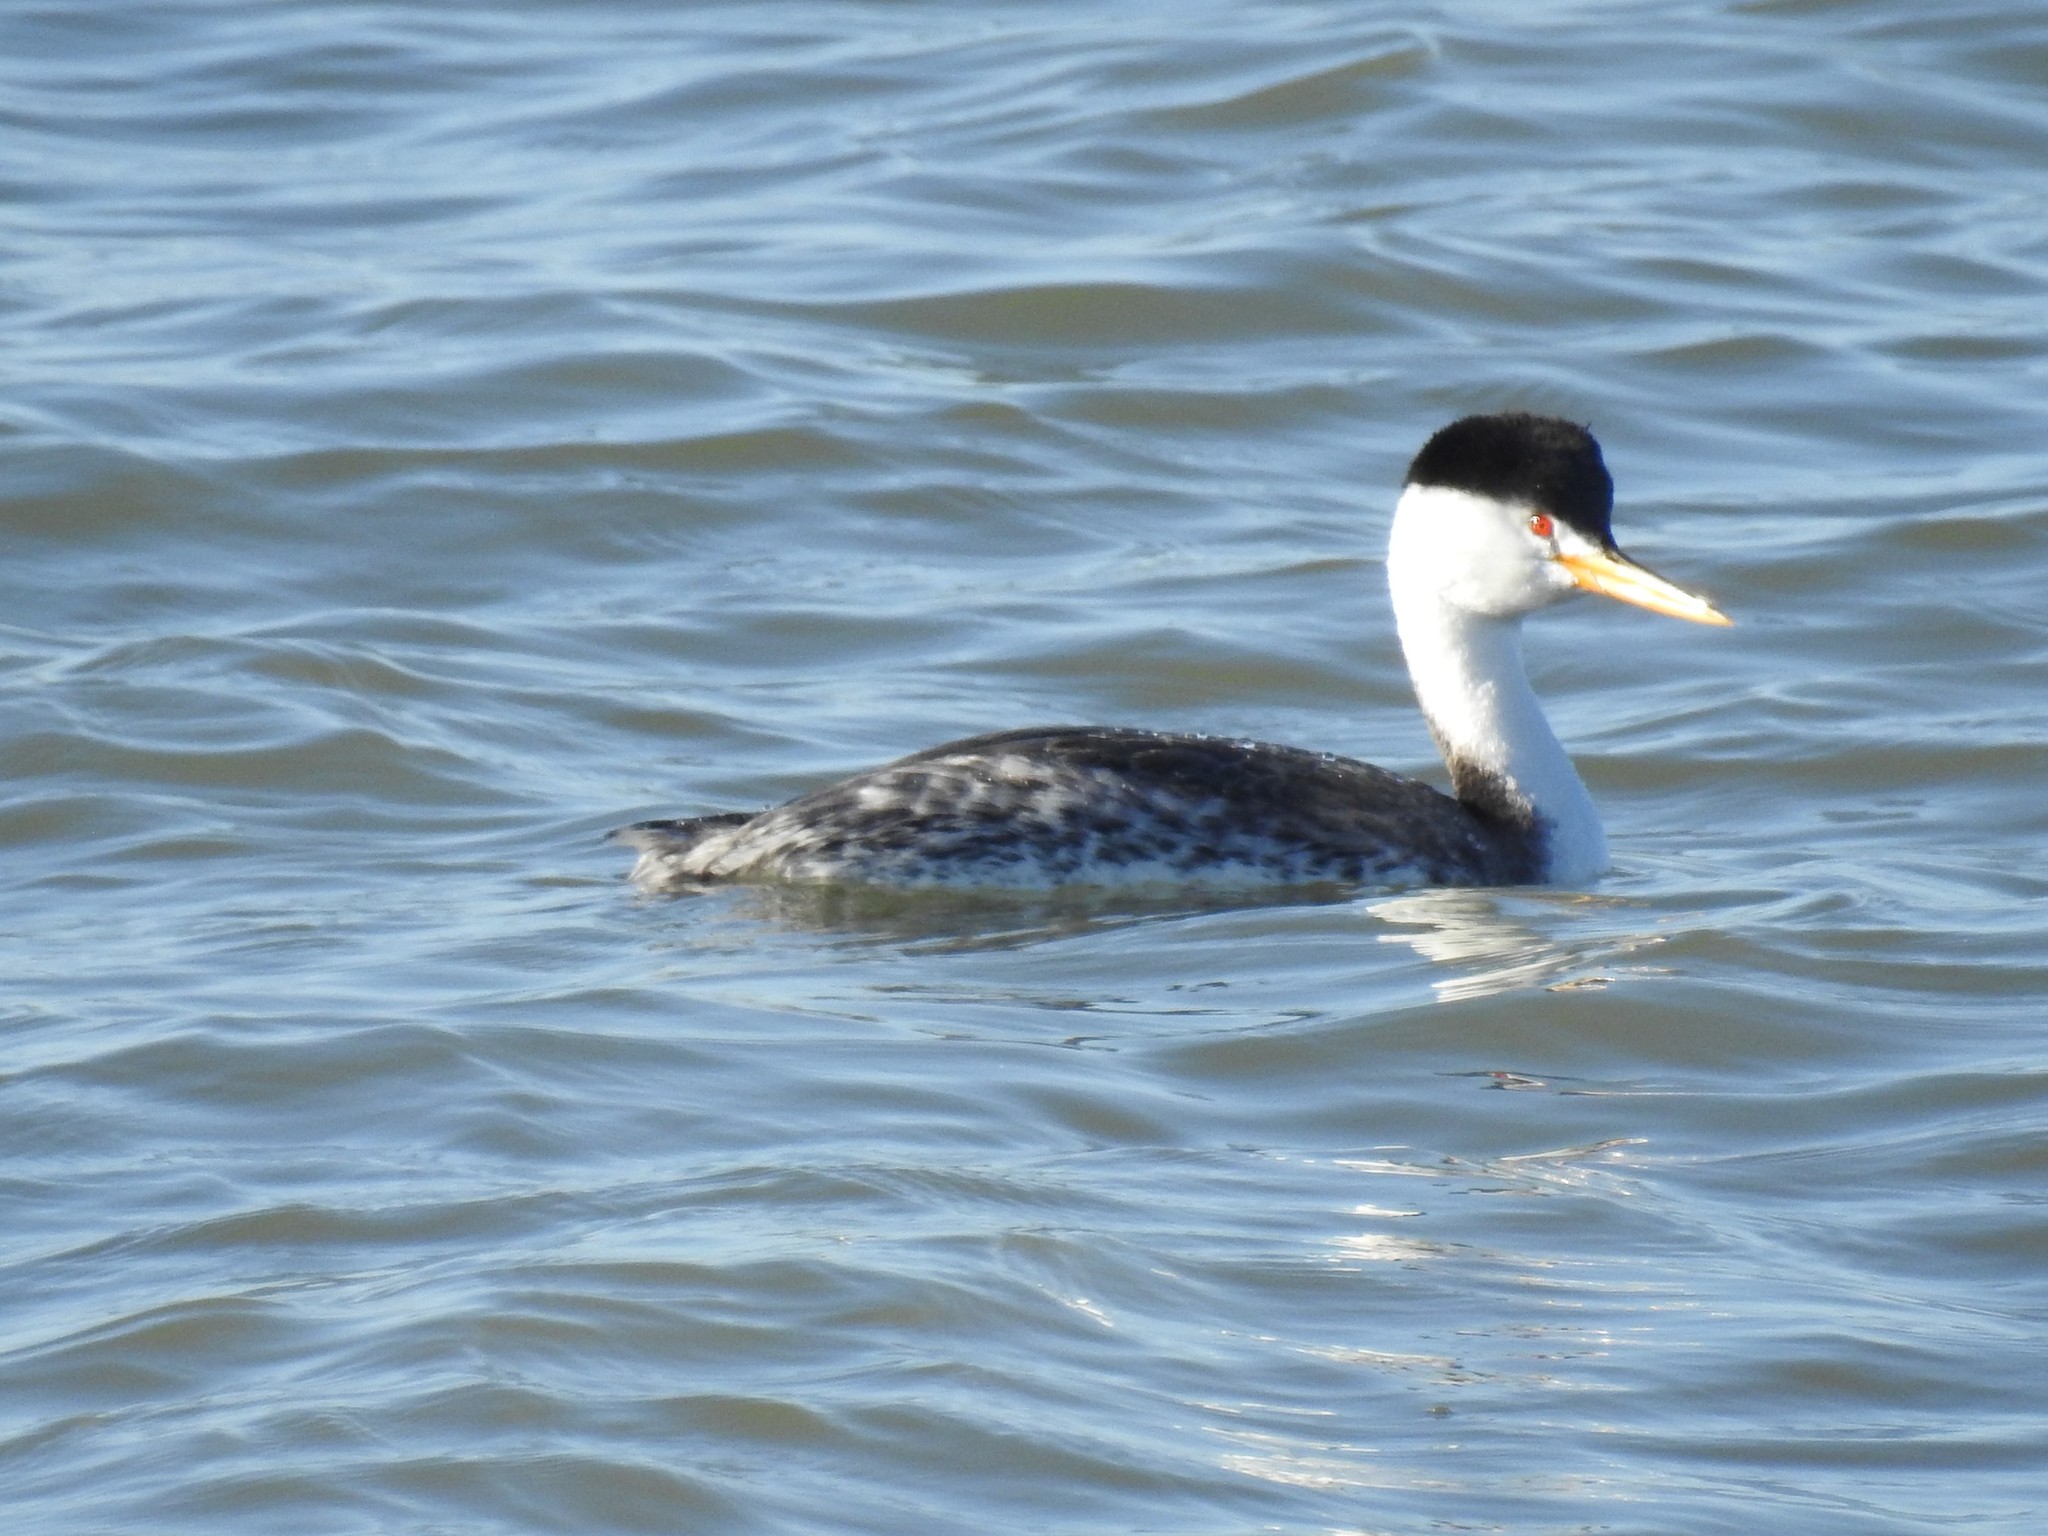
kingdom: Animalia
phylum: Chordata
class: Aves
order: Podicipediformes
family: Podicipedidae
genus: Aechmophorus
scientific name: Aechmophorus clarkii
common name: Clark's grebe
